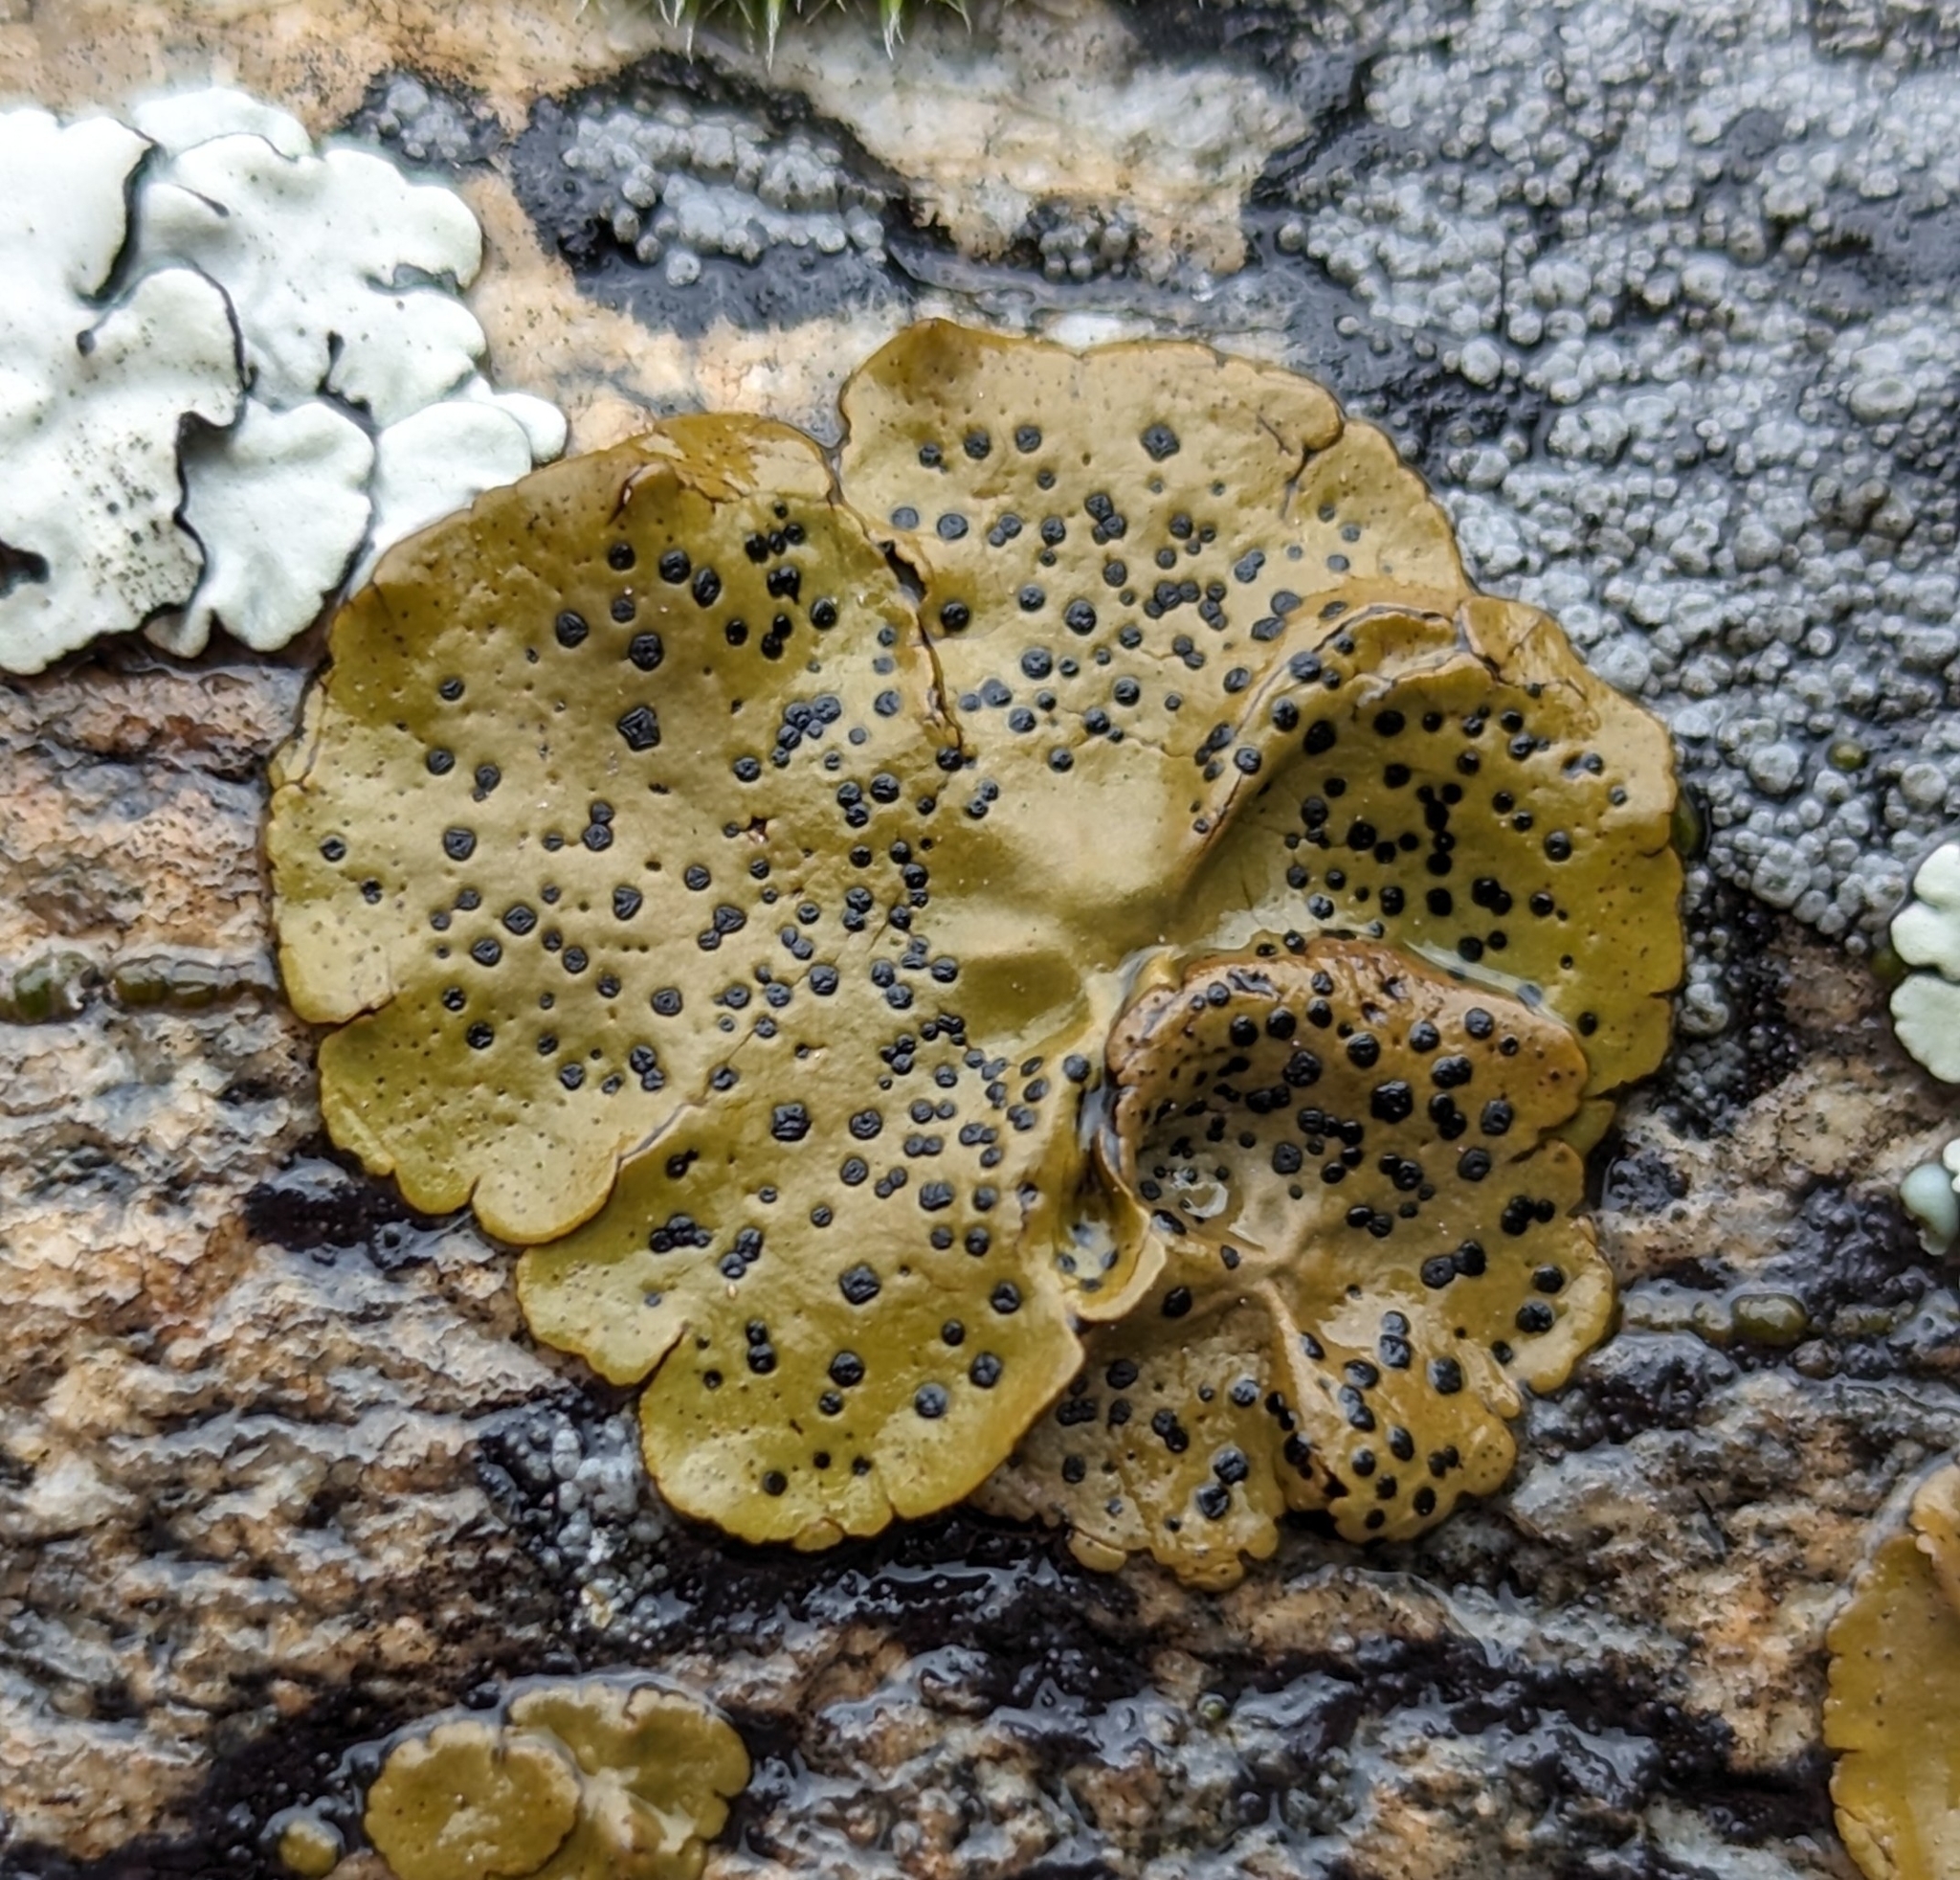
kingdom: Fungi
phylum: Ascomycota
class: Lecanoromycetes
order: Umbilicariales
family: Umbilicariaceae
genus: Umbilicaria
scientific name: Umbilicaria phaea
